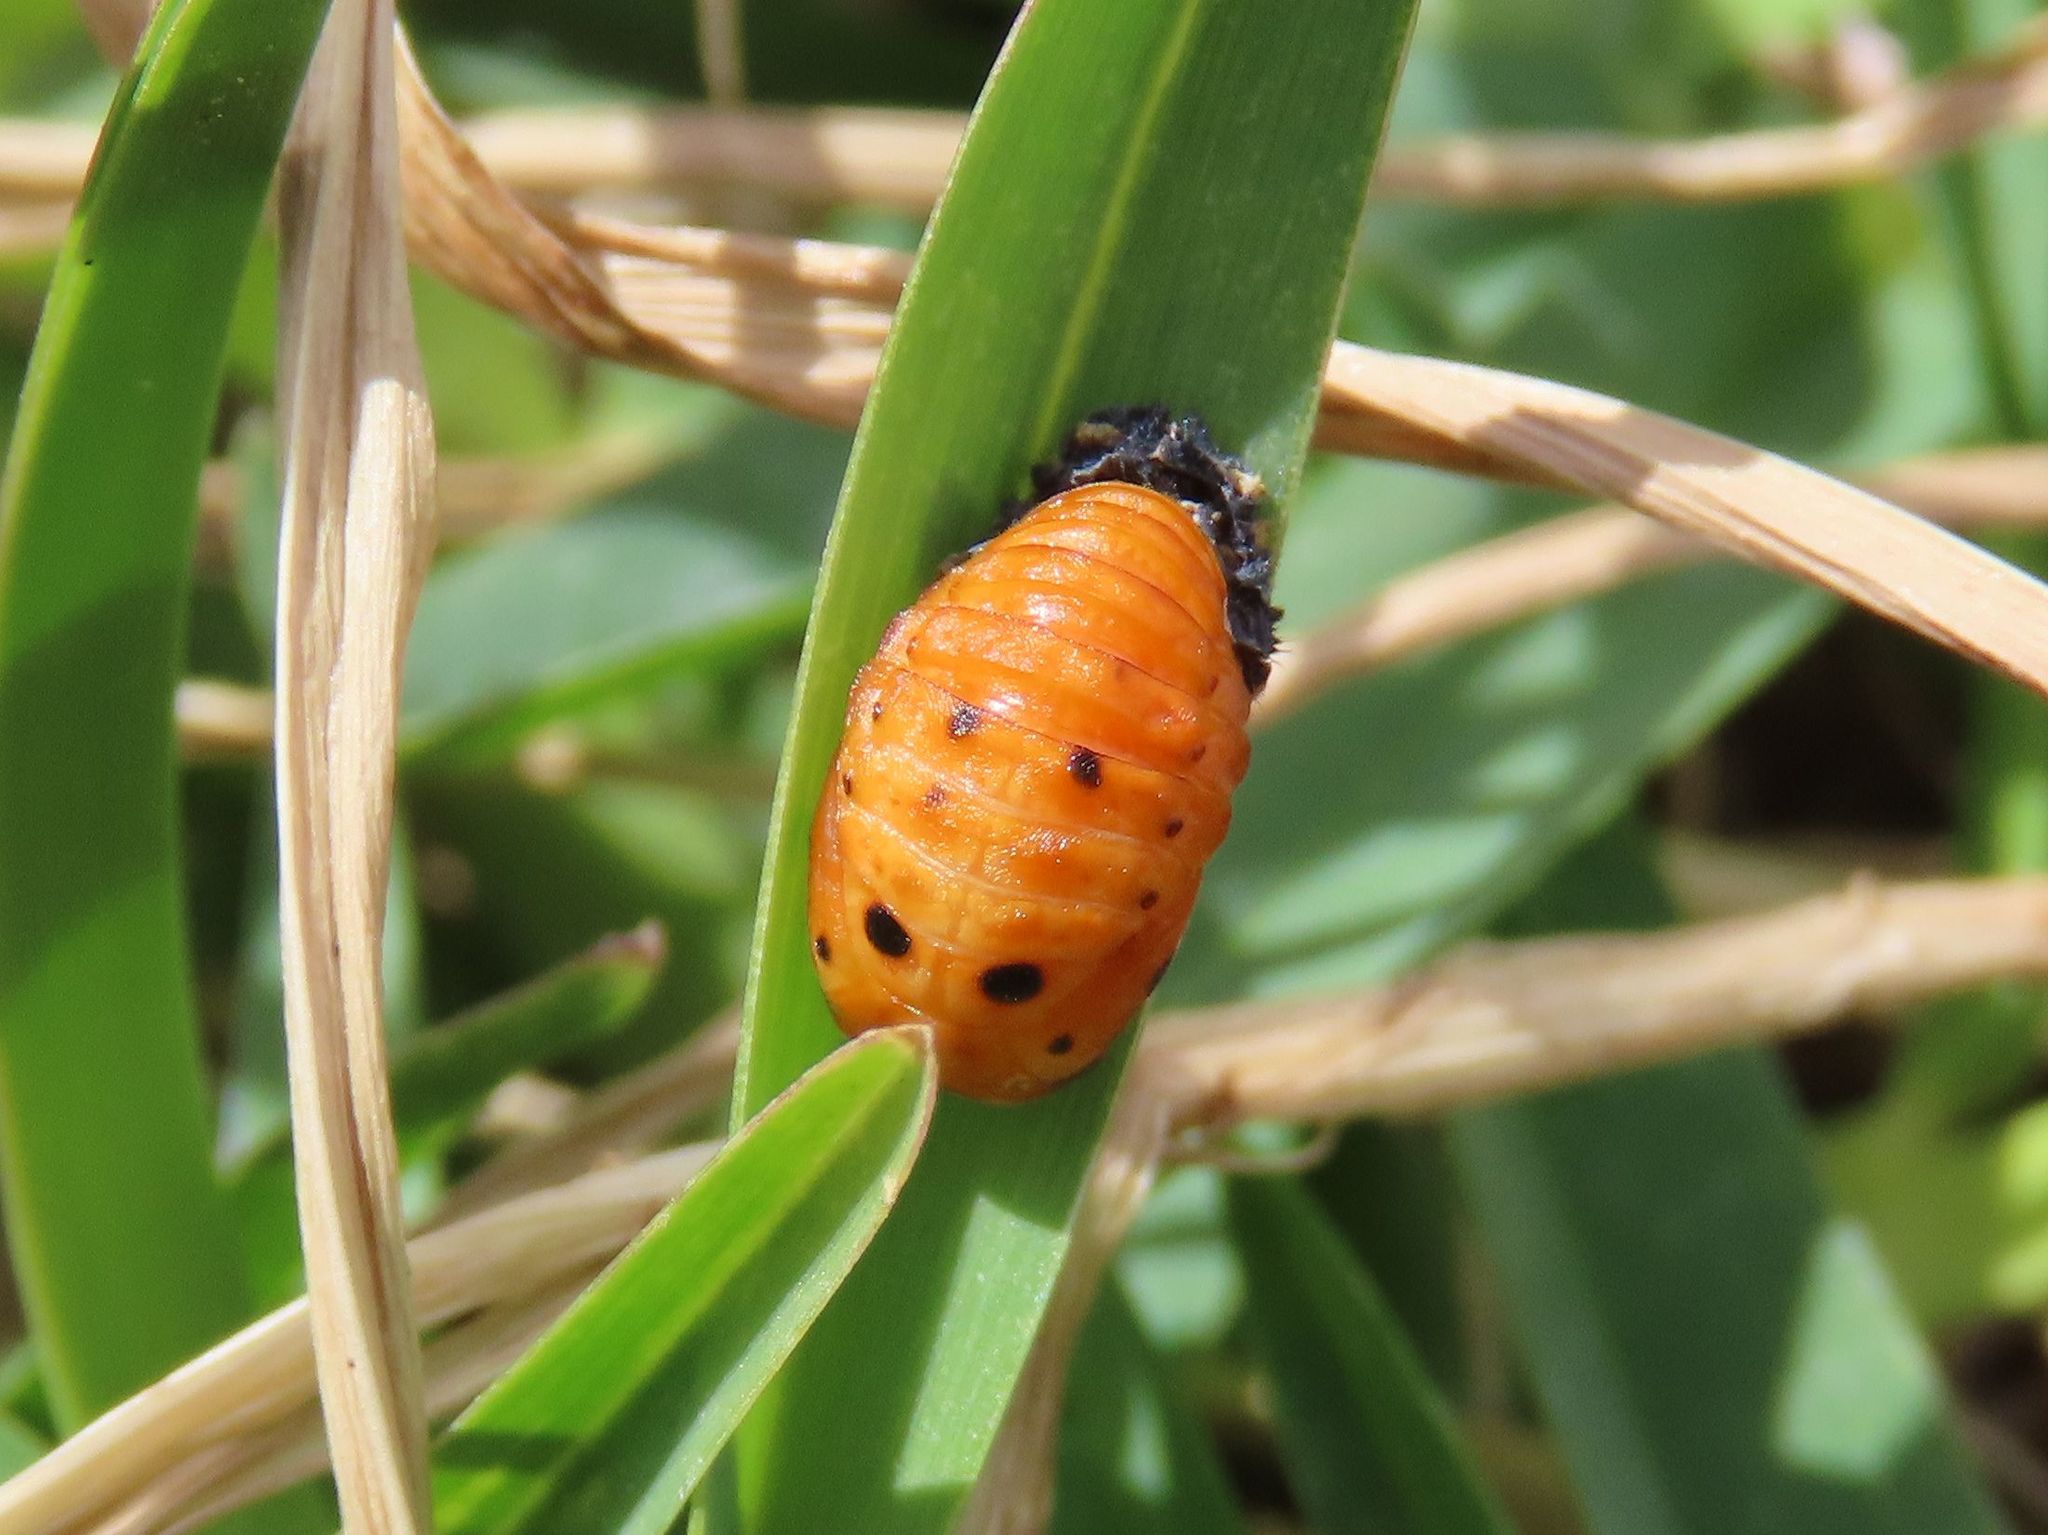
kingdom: Animalia
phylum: Arthropoda
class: Insecta
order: Coleoptera
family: Coccinellidae
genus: Coccinella
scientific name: Coccinella septempunctata
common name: Sevenspotted lady beetle
